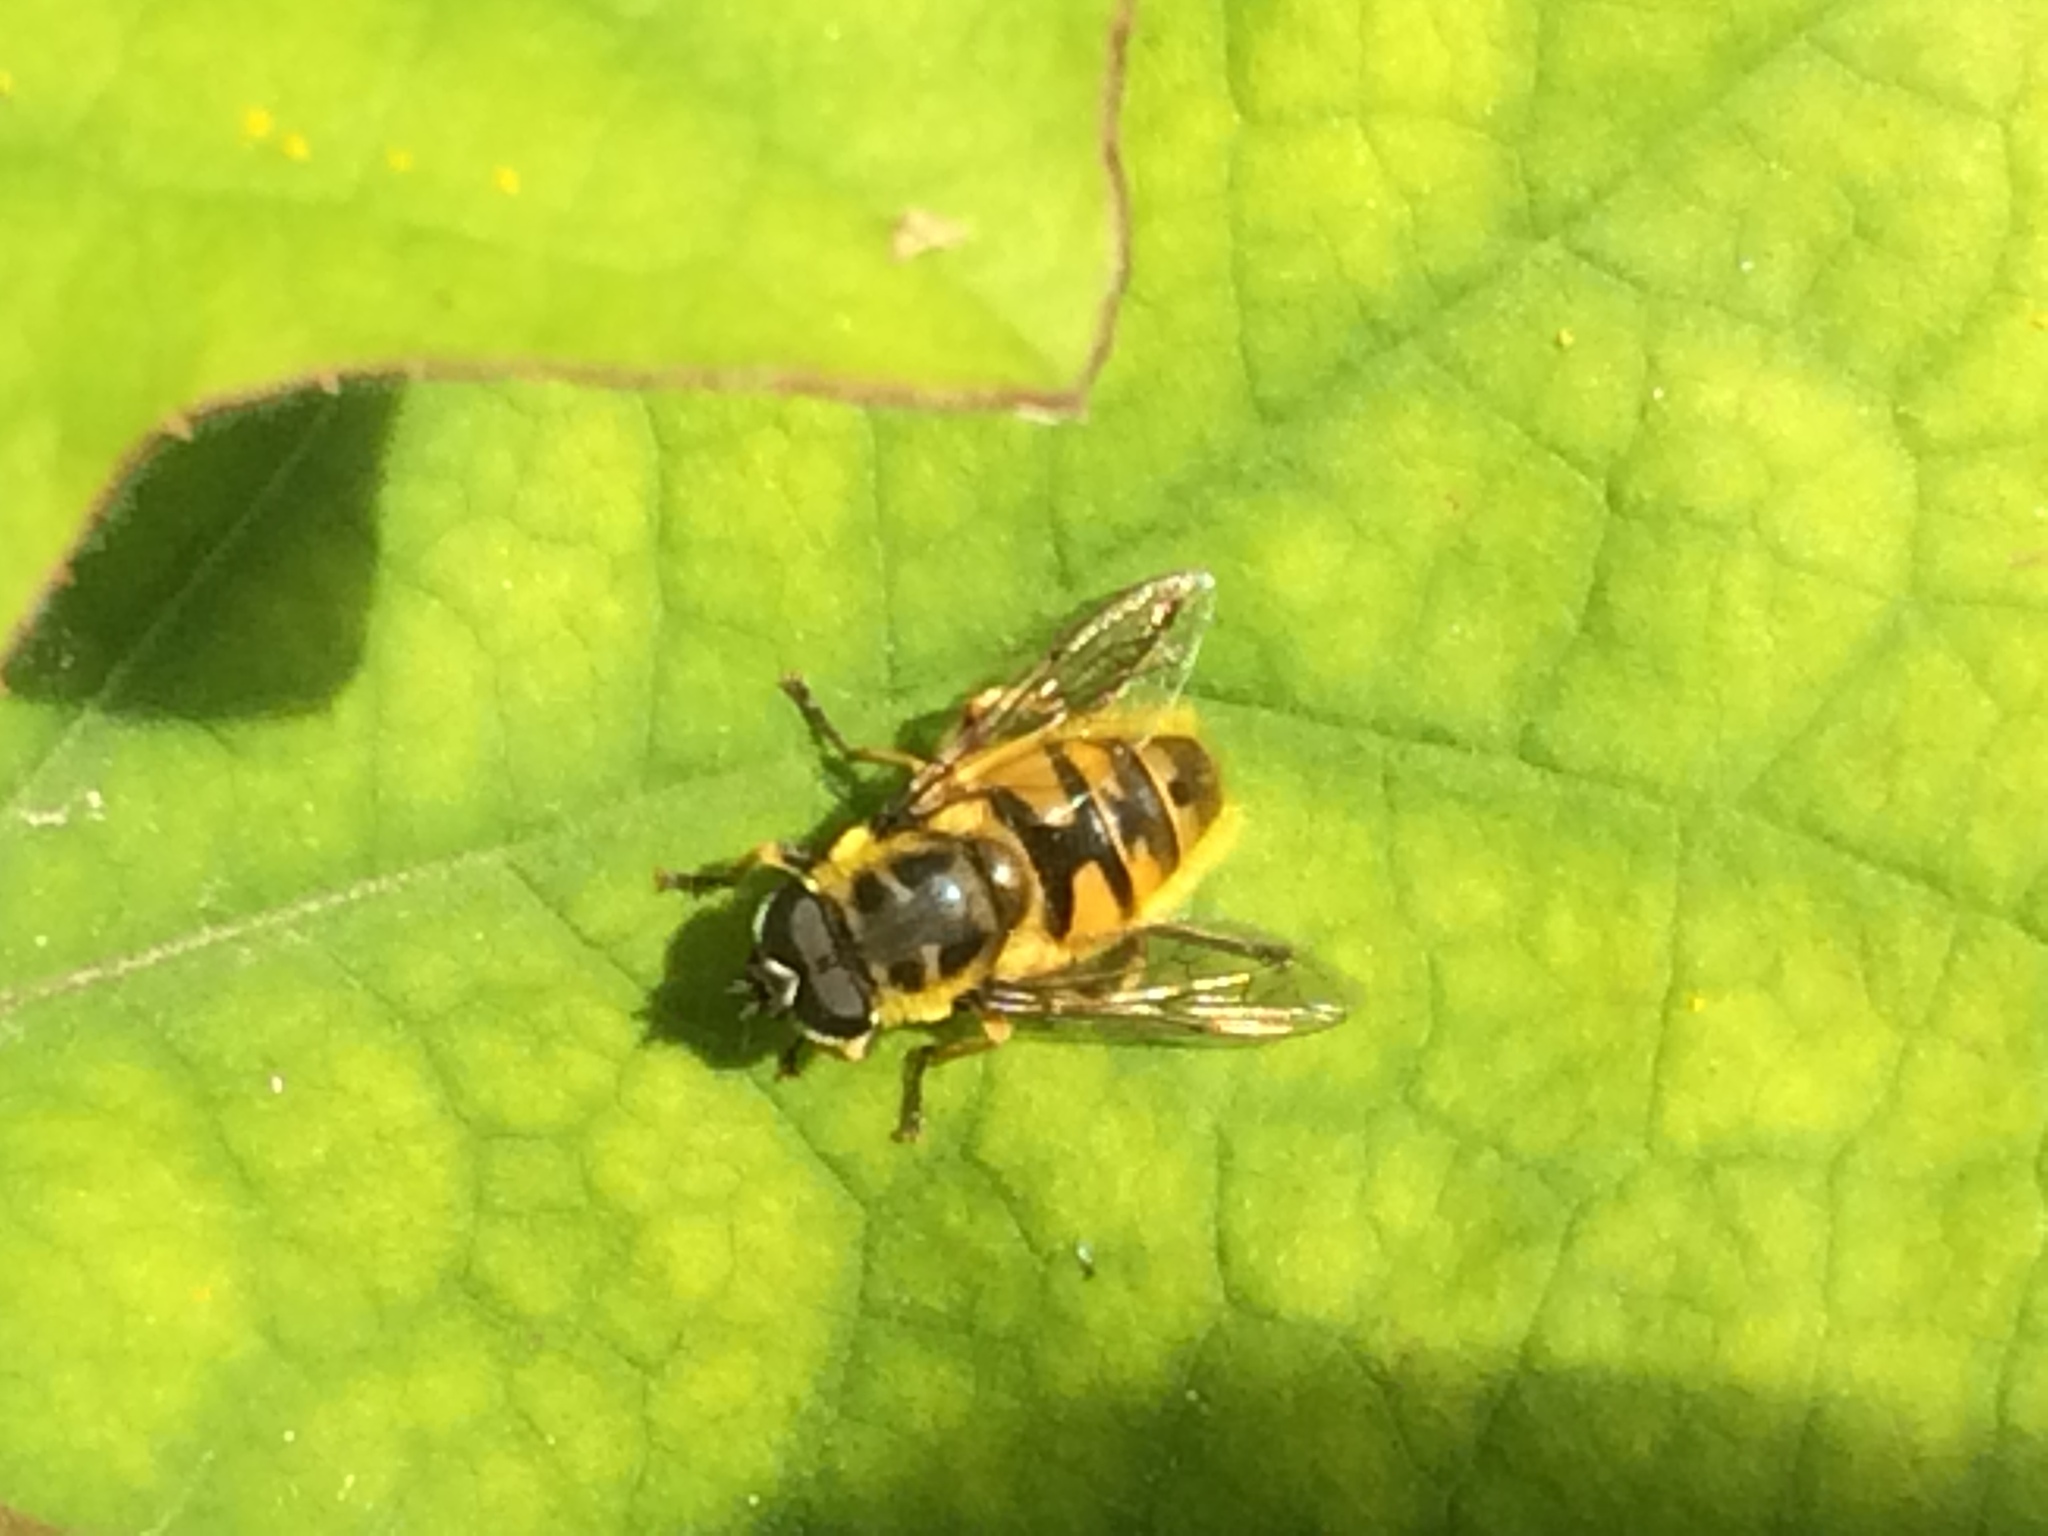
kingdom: Animalia
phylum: Arthropoda
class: Insecta
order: Diptera
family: Syrphidae
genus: Myathropa
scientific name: Myathropa florea
